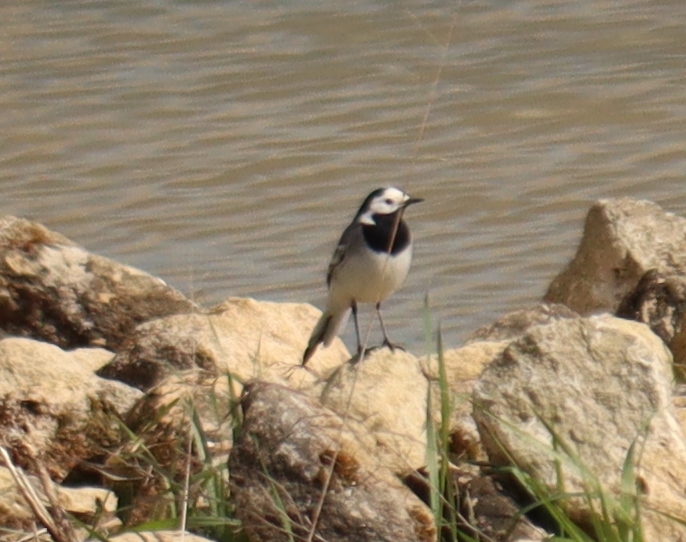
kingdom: Animalia
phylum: Chordata
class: Aves
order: Passeriformes
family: Motacillidae
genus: Motacilla
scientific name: Motacilla alba
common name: White wagtail
